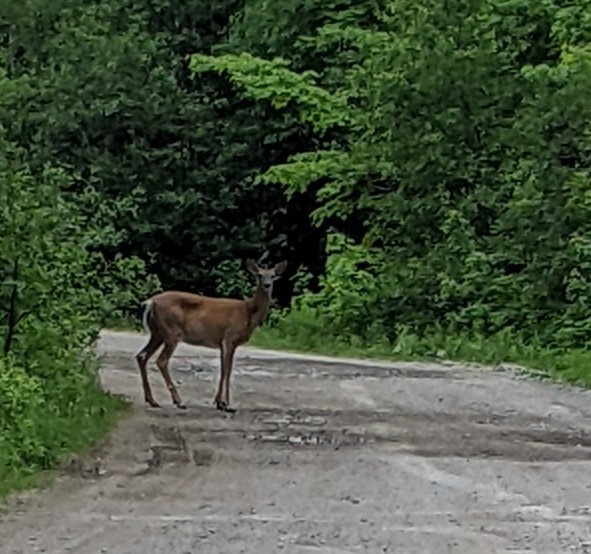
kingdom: Animalia
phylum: Chordata
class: Mammalia
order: Artiodactyla
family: Cervidae
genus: Odocoileus
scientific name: Odocoileus virginianus
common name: White-tailed deer
